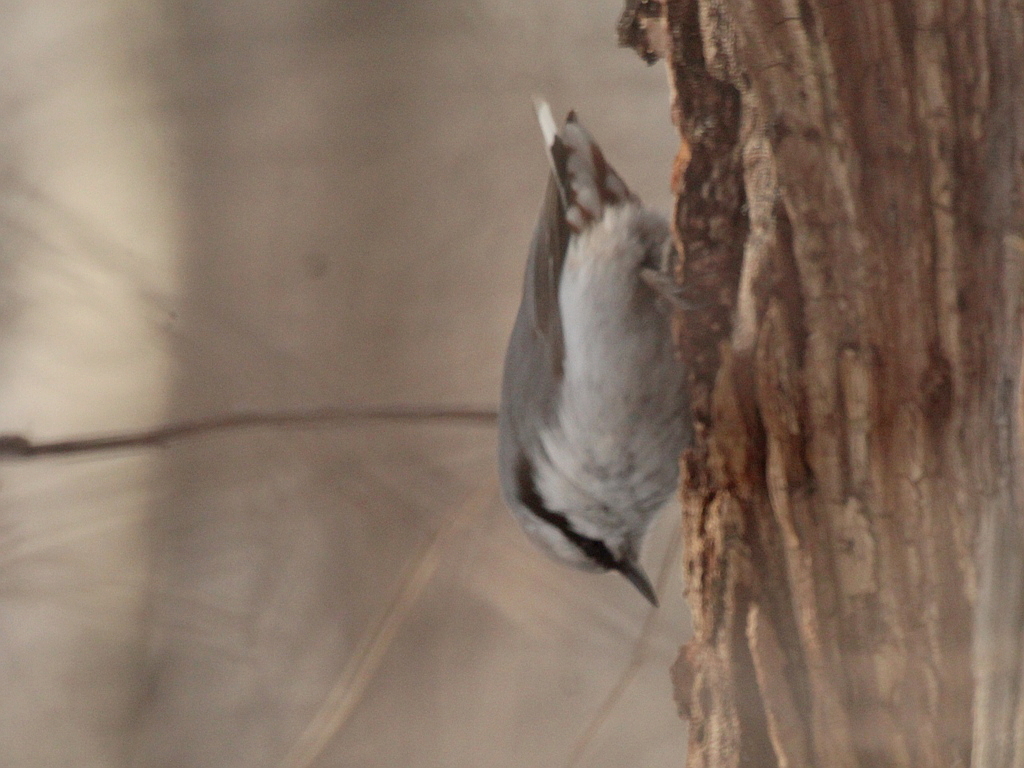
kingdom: Animalia
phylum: Chordata
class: Aves
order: Passeriformes
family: Sittidae
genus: Sitta
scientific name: Sitta europaea
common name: Eurasian nuthatch
